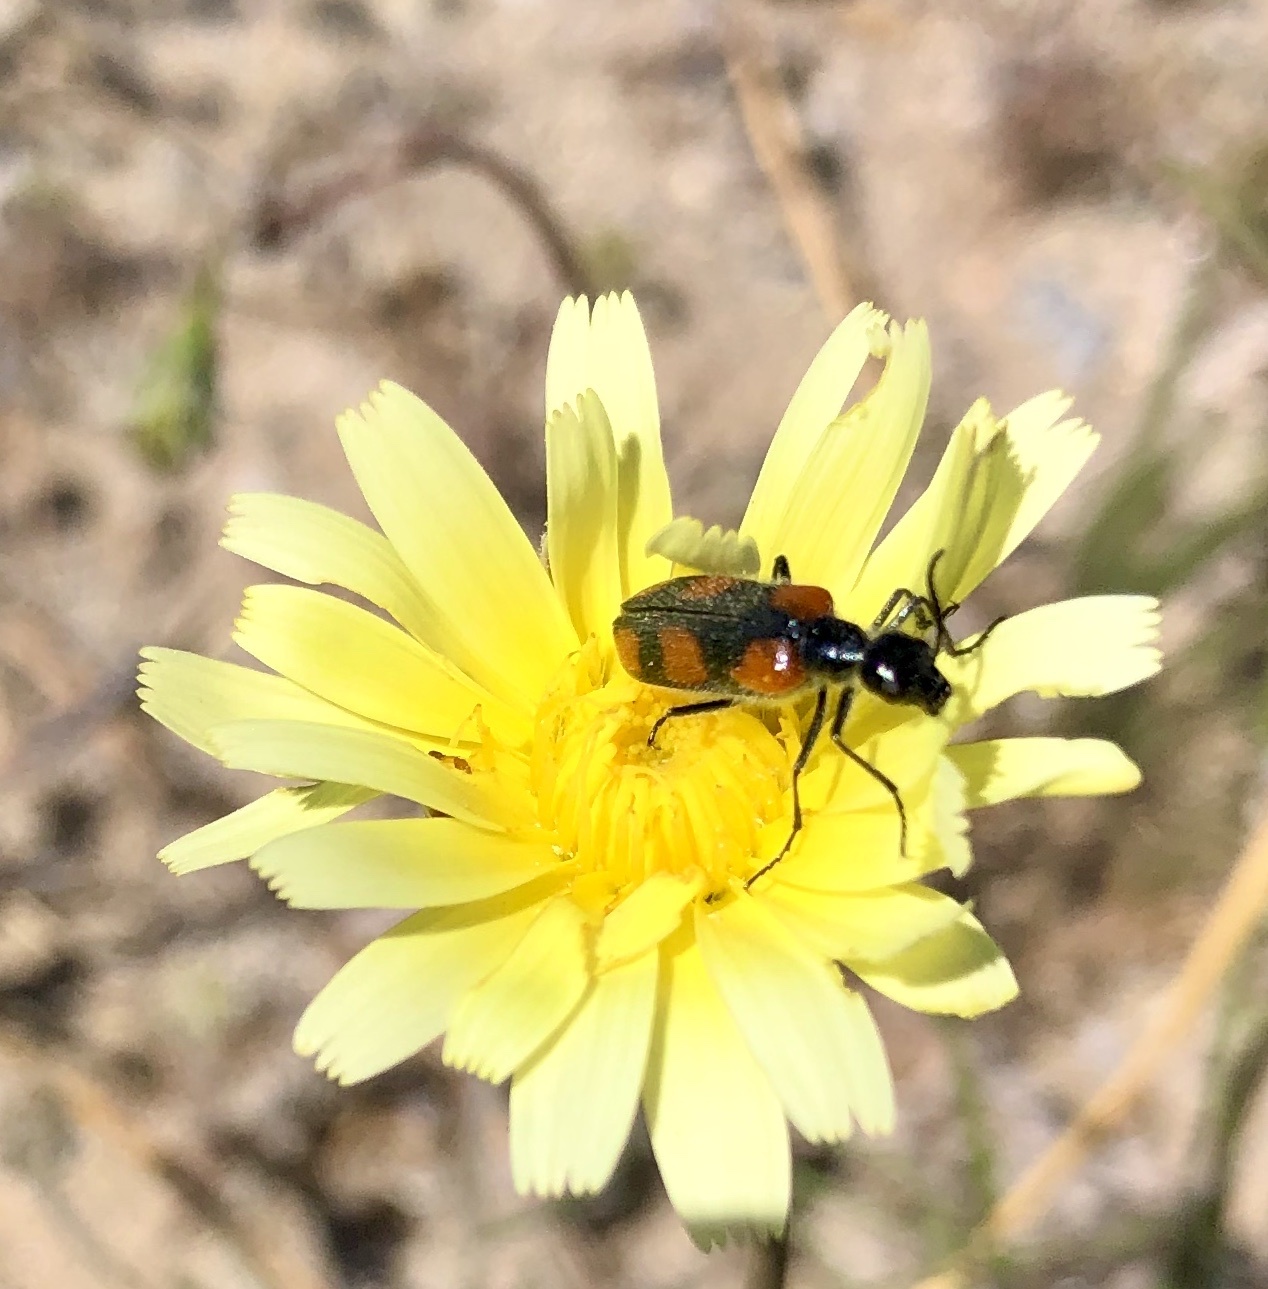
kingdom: Animalia
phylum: Arthropoda
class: Insecta
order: Coleoptera
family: Meloidae
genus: Eupompha
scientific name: Eupompha elegans
